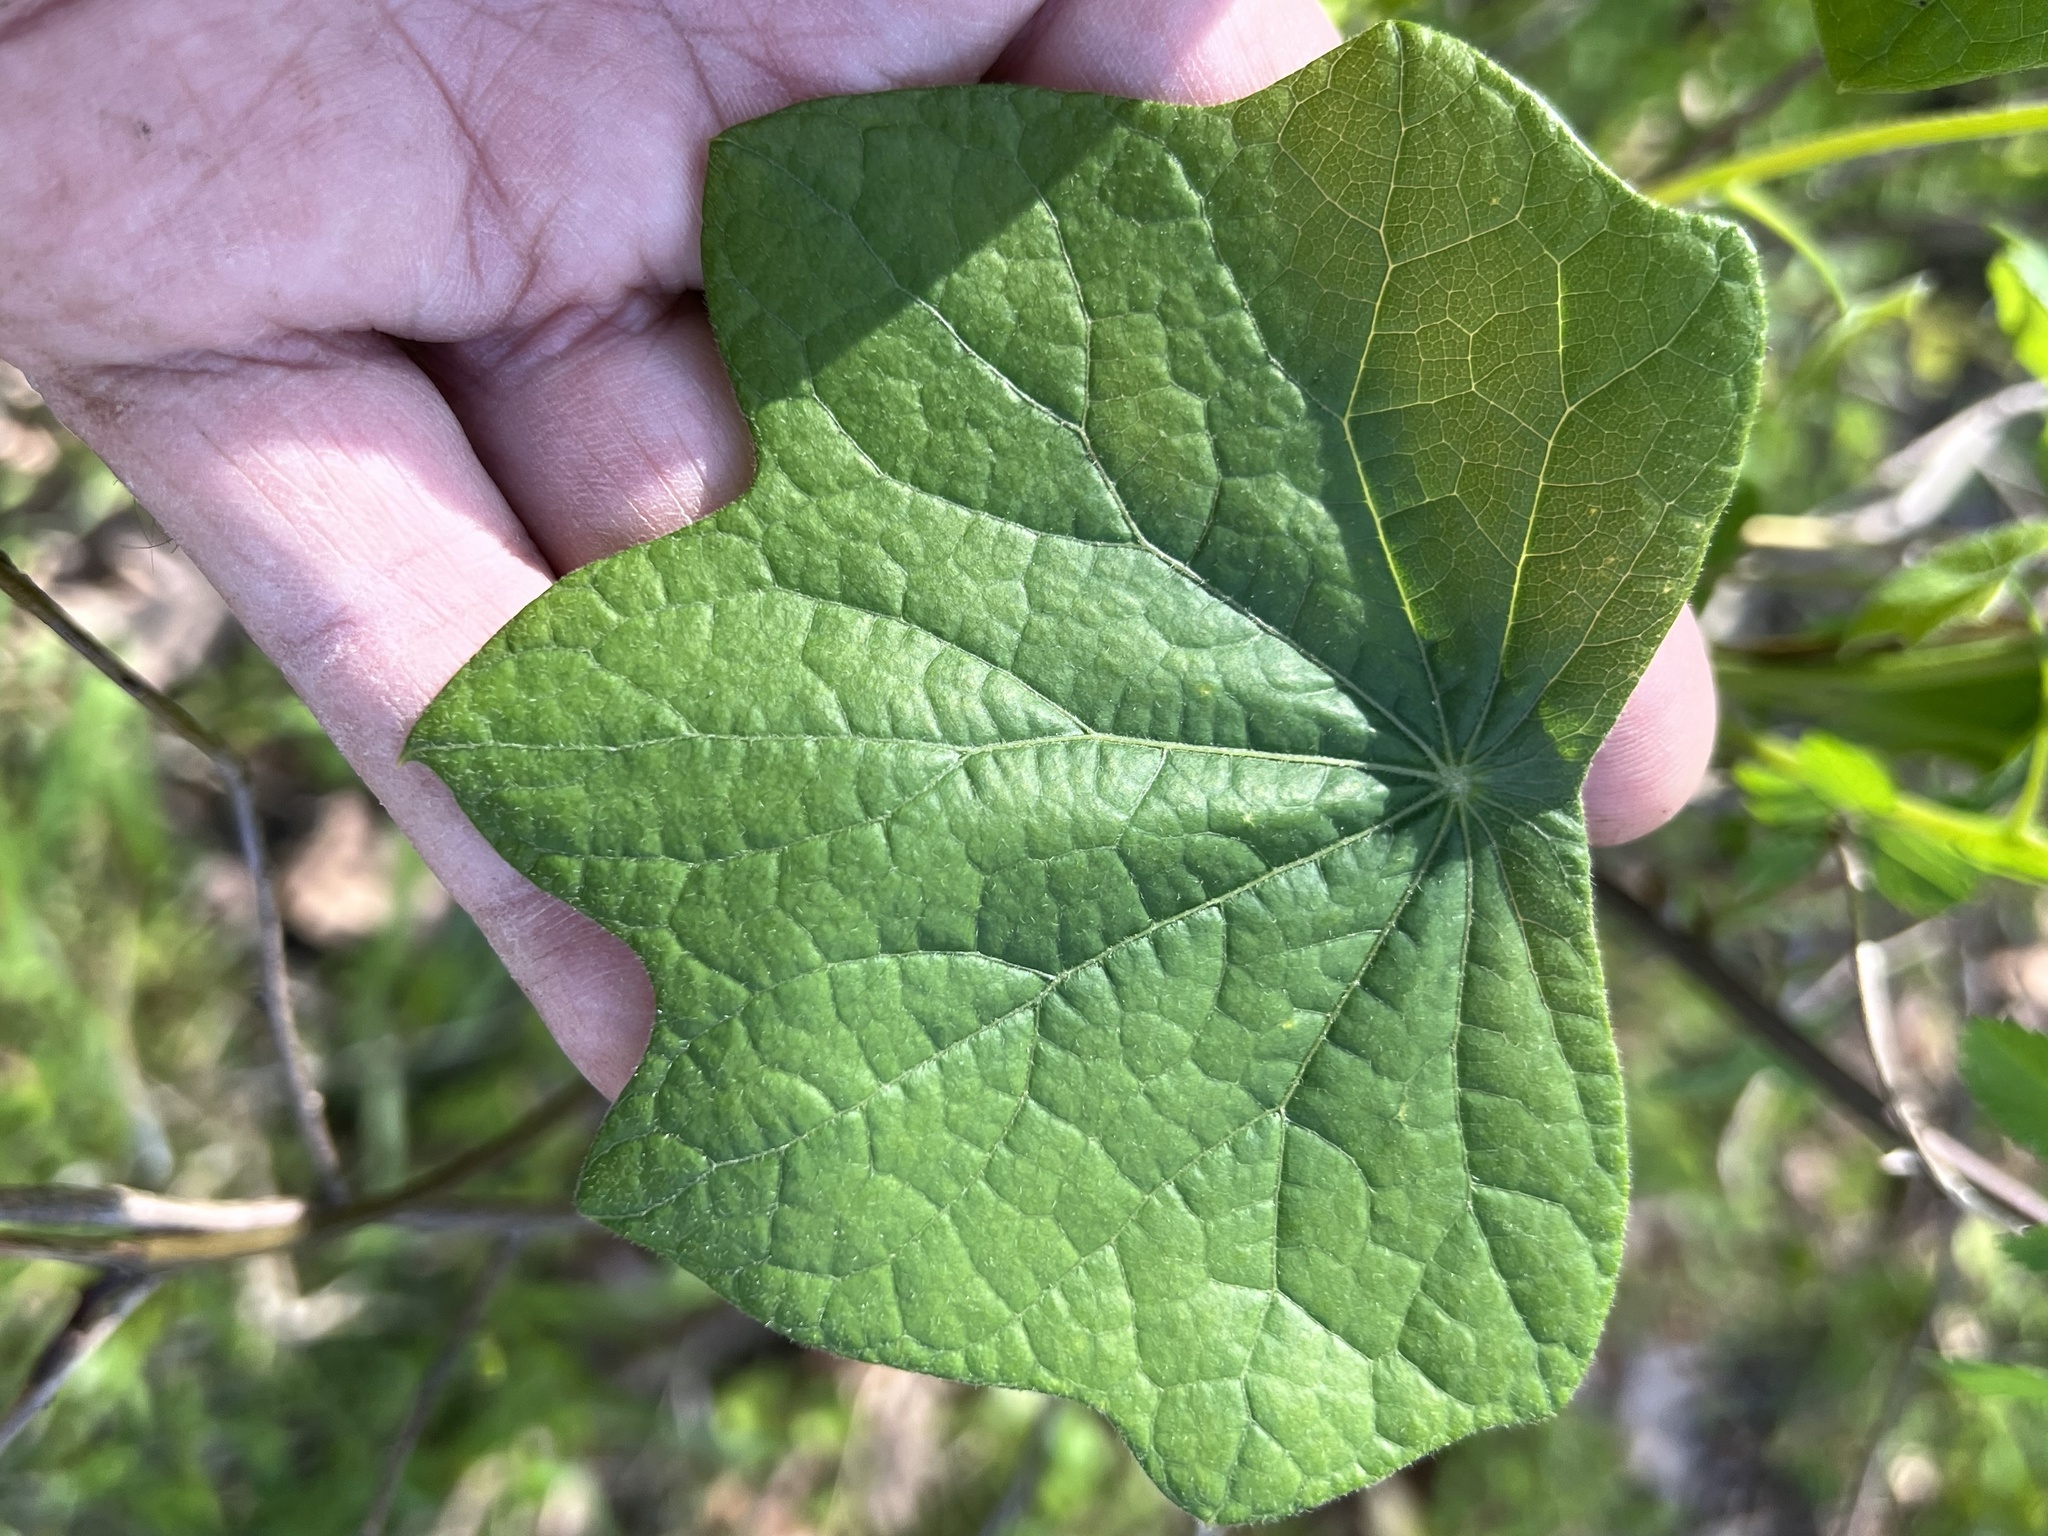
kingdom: Plantae
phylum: Tracheophyta
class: Magnoliopsida
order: Ranunculales
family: Menispermaceae
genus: Menispermum
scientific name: Menispermum canadense
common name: Moonseed
